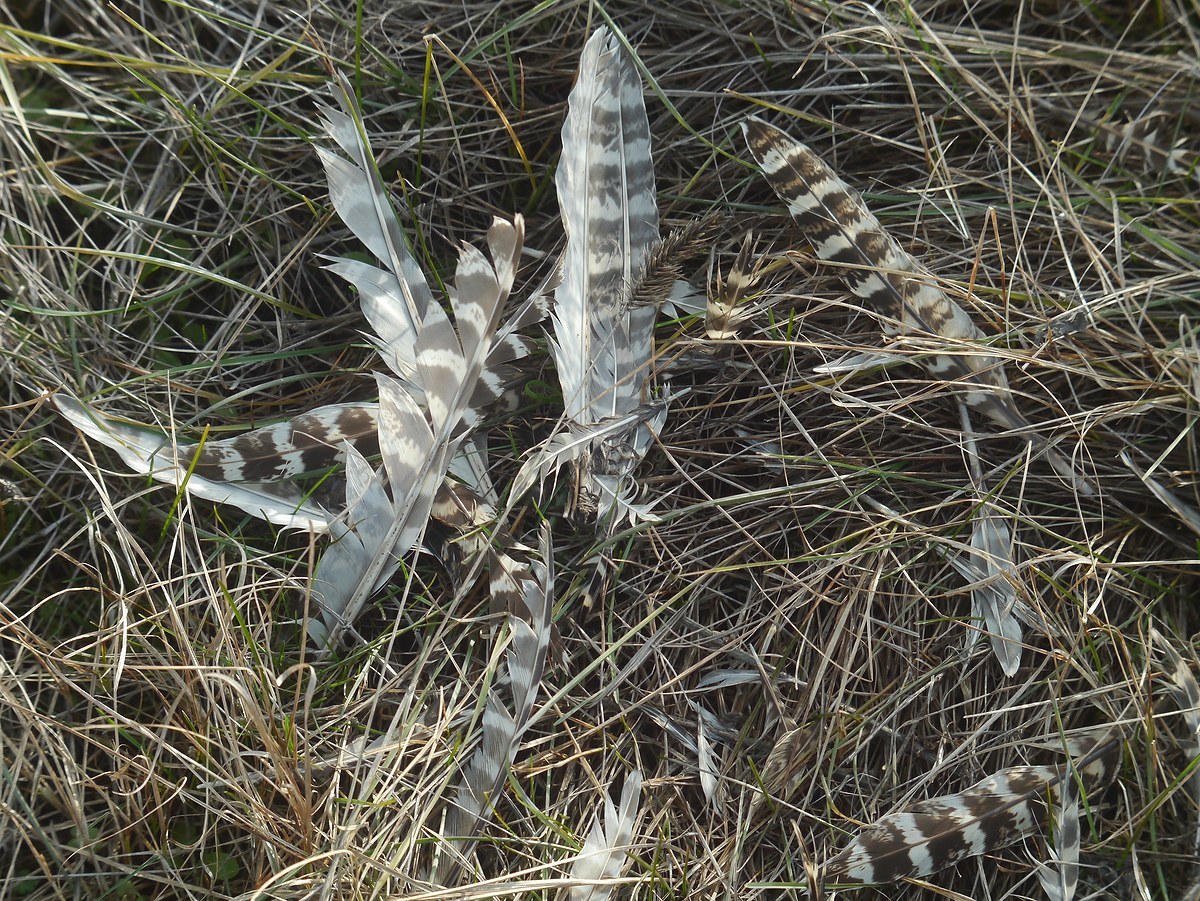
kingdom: Animalia
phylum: Chordata
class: Aves
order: Galliformes
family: Phasianidae
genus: Phasianus
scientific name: Phasianus colchicus
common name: Common pheasant
